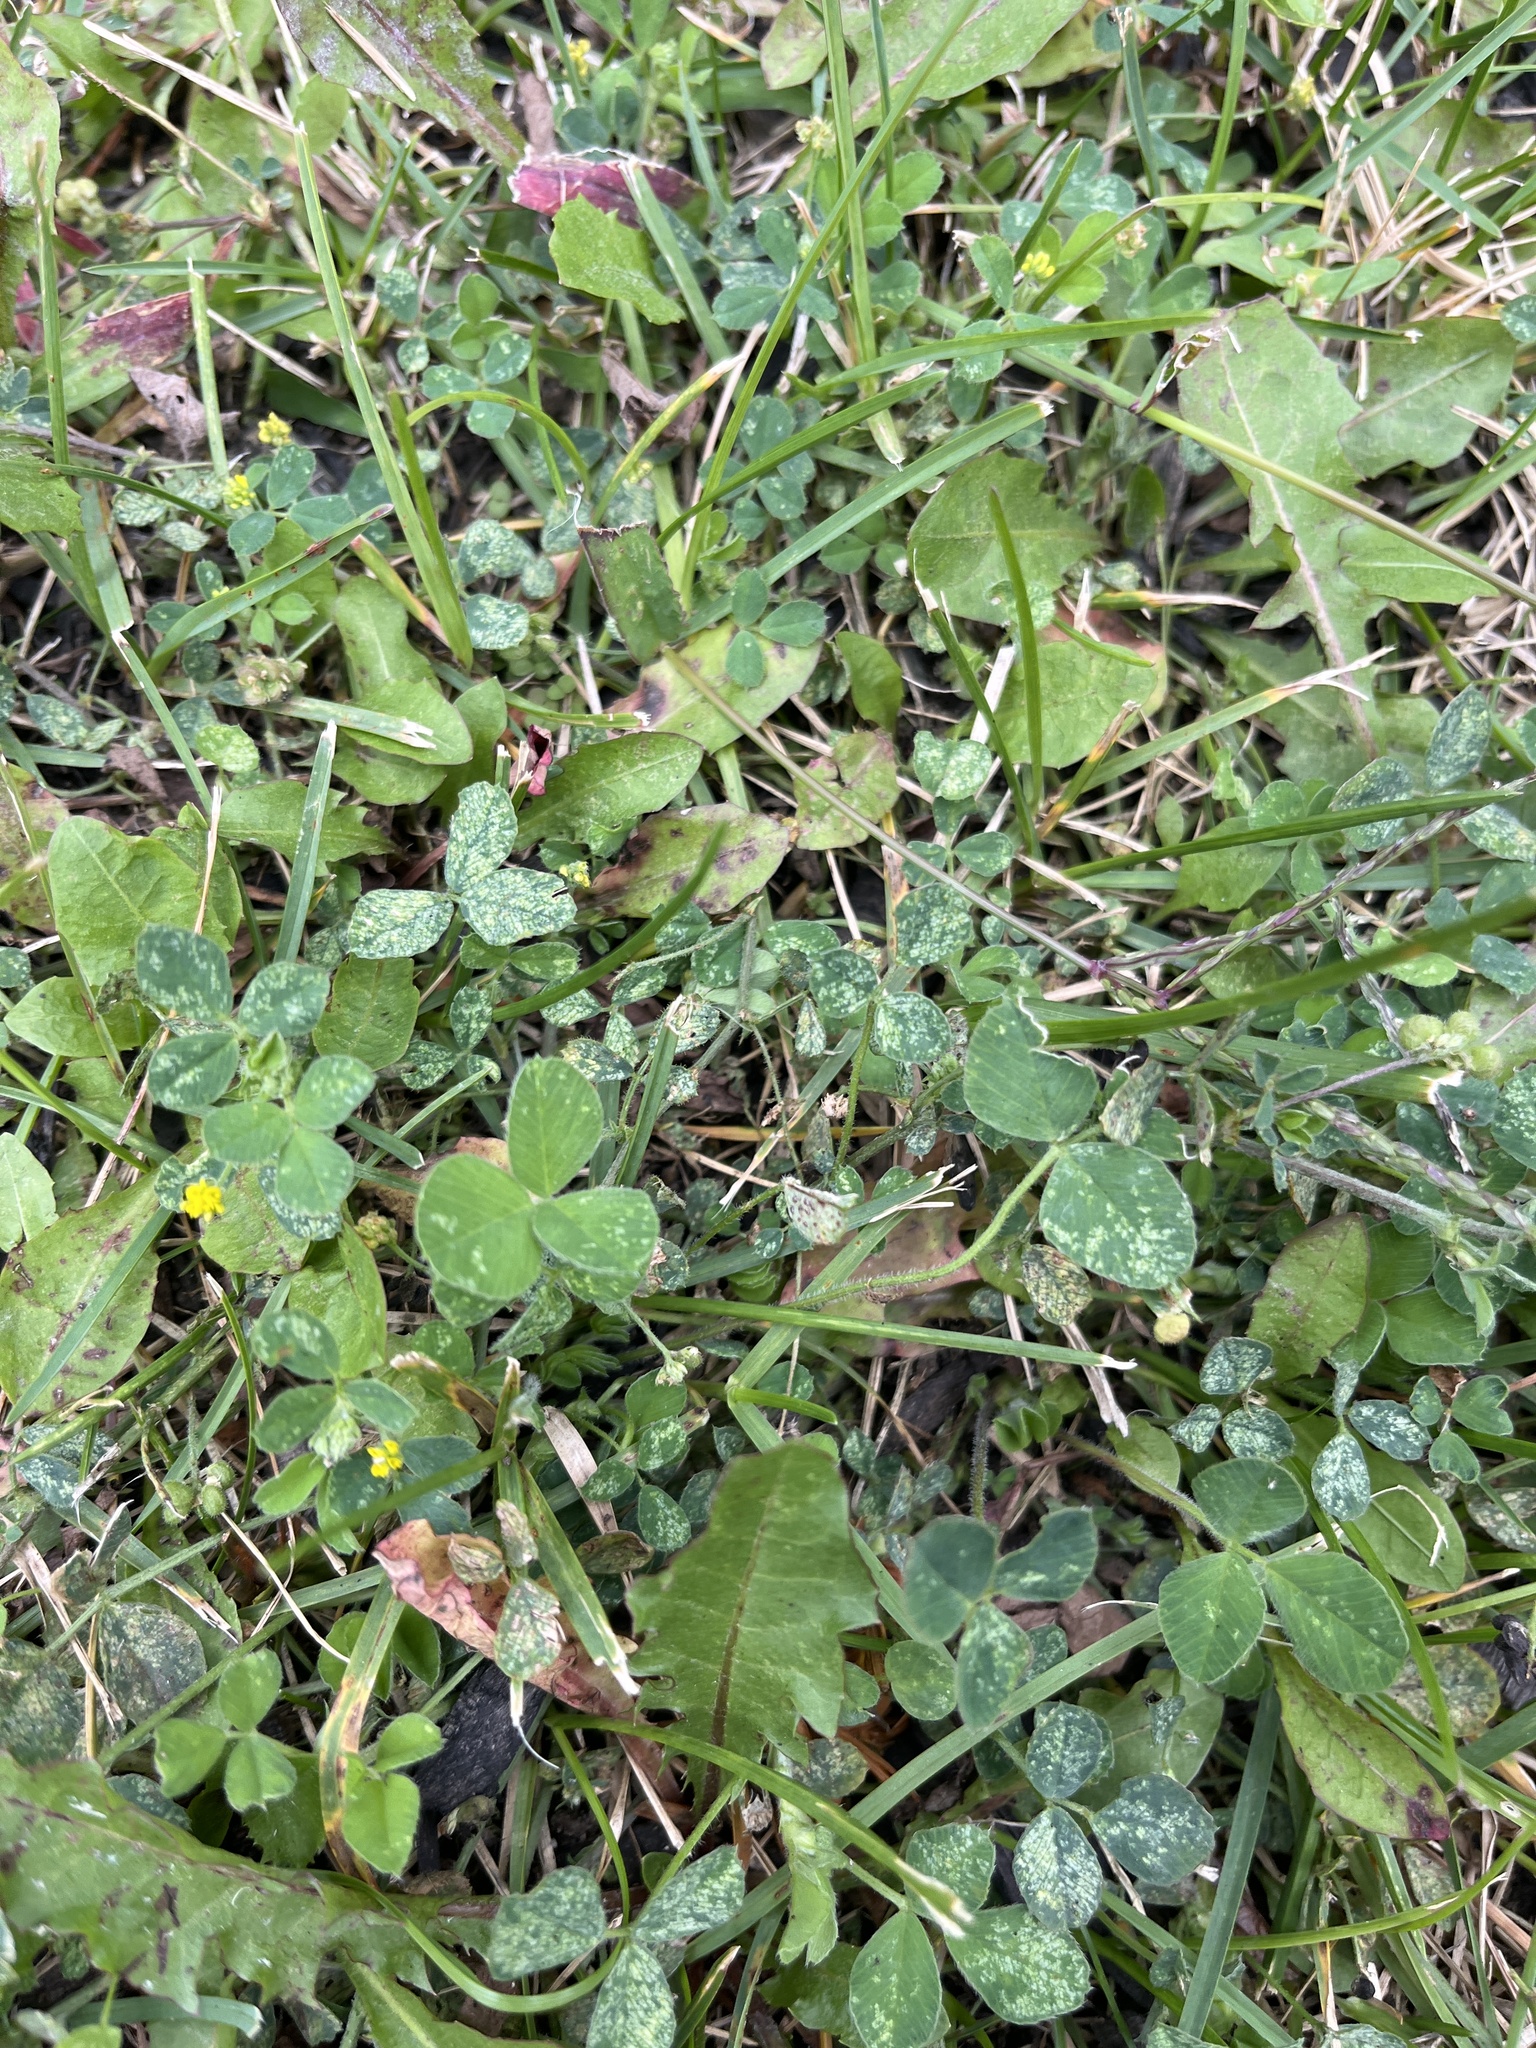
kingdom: Plantae
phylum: Tracheophyta
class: Magnoliopsida
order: Fabales
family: Fabaceae
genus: Medicago
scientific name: Medicago lupulina
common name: Black medick
